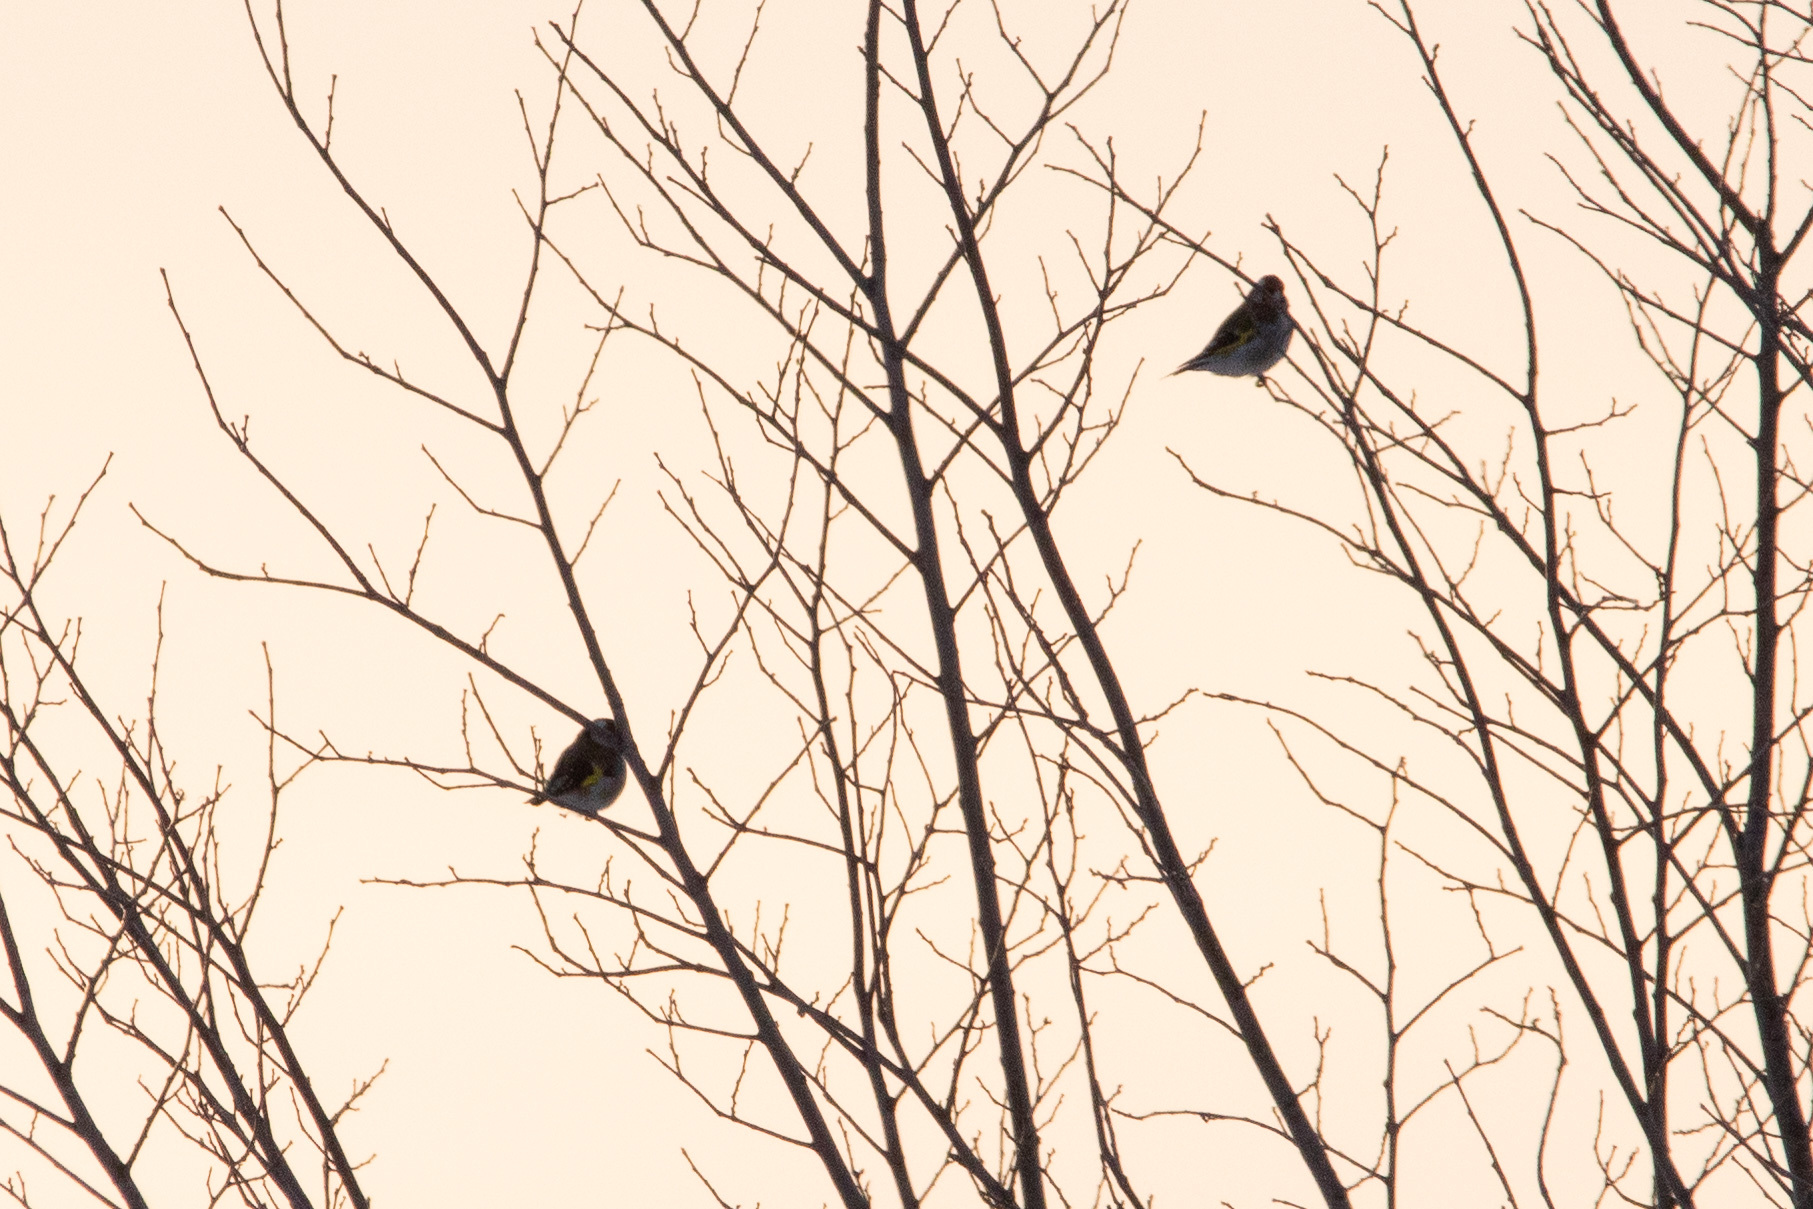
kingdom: Animalia
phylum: Chordata
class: Aves
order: Passeriformes
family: Fringillidae
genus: Carduelis
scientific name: Carduelis carduelis
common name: European goldfinch
